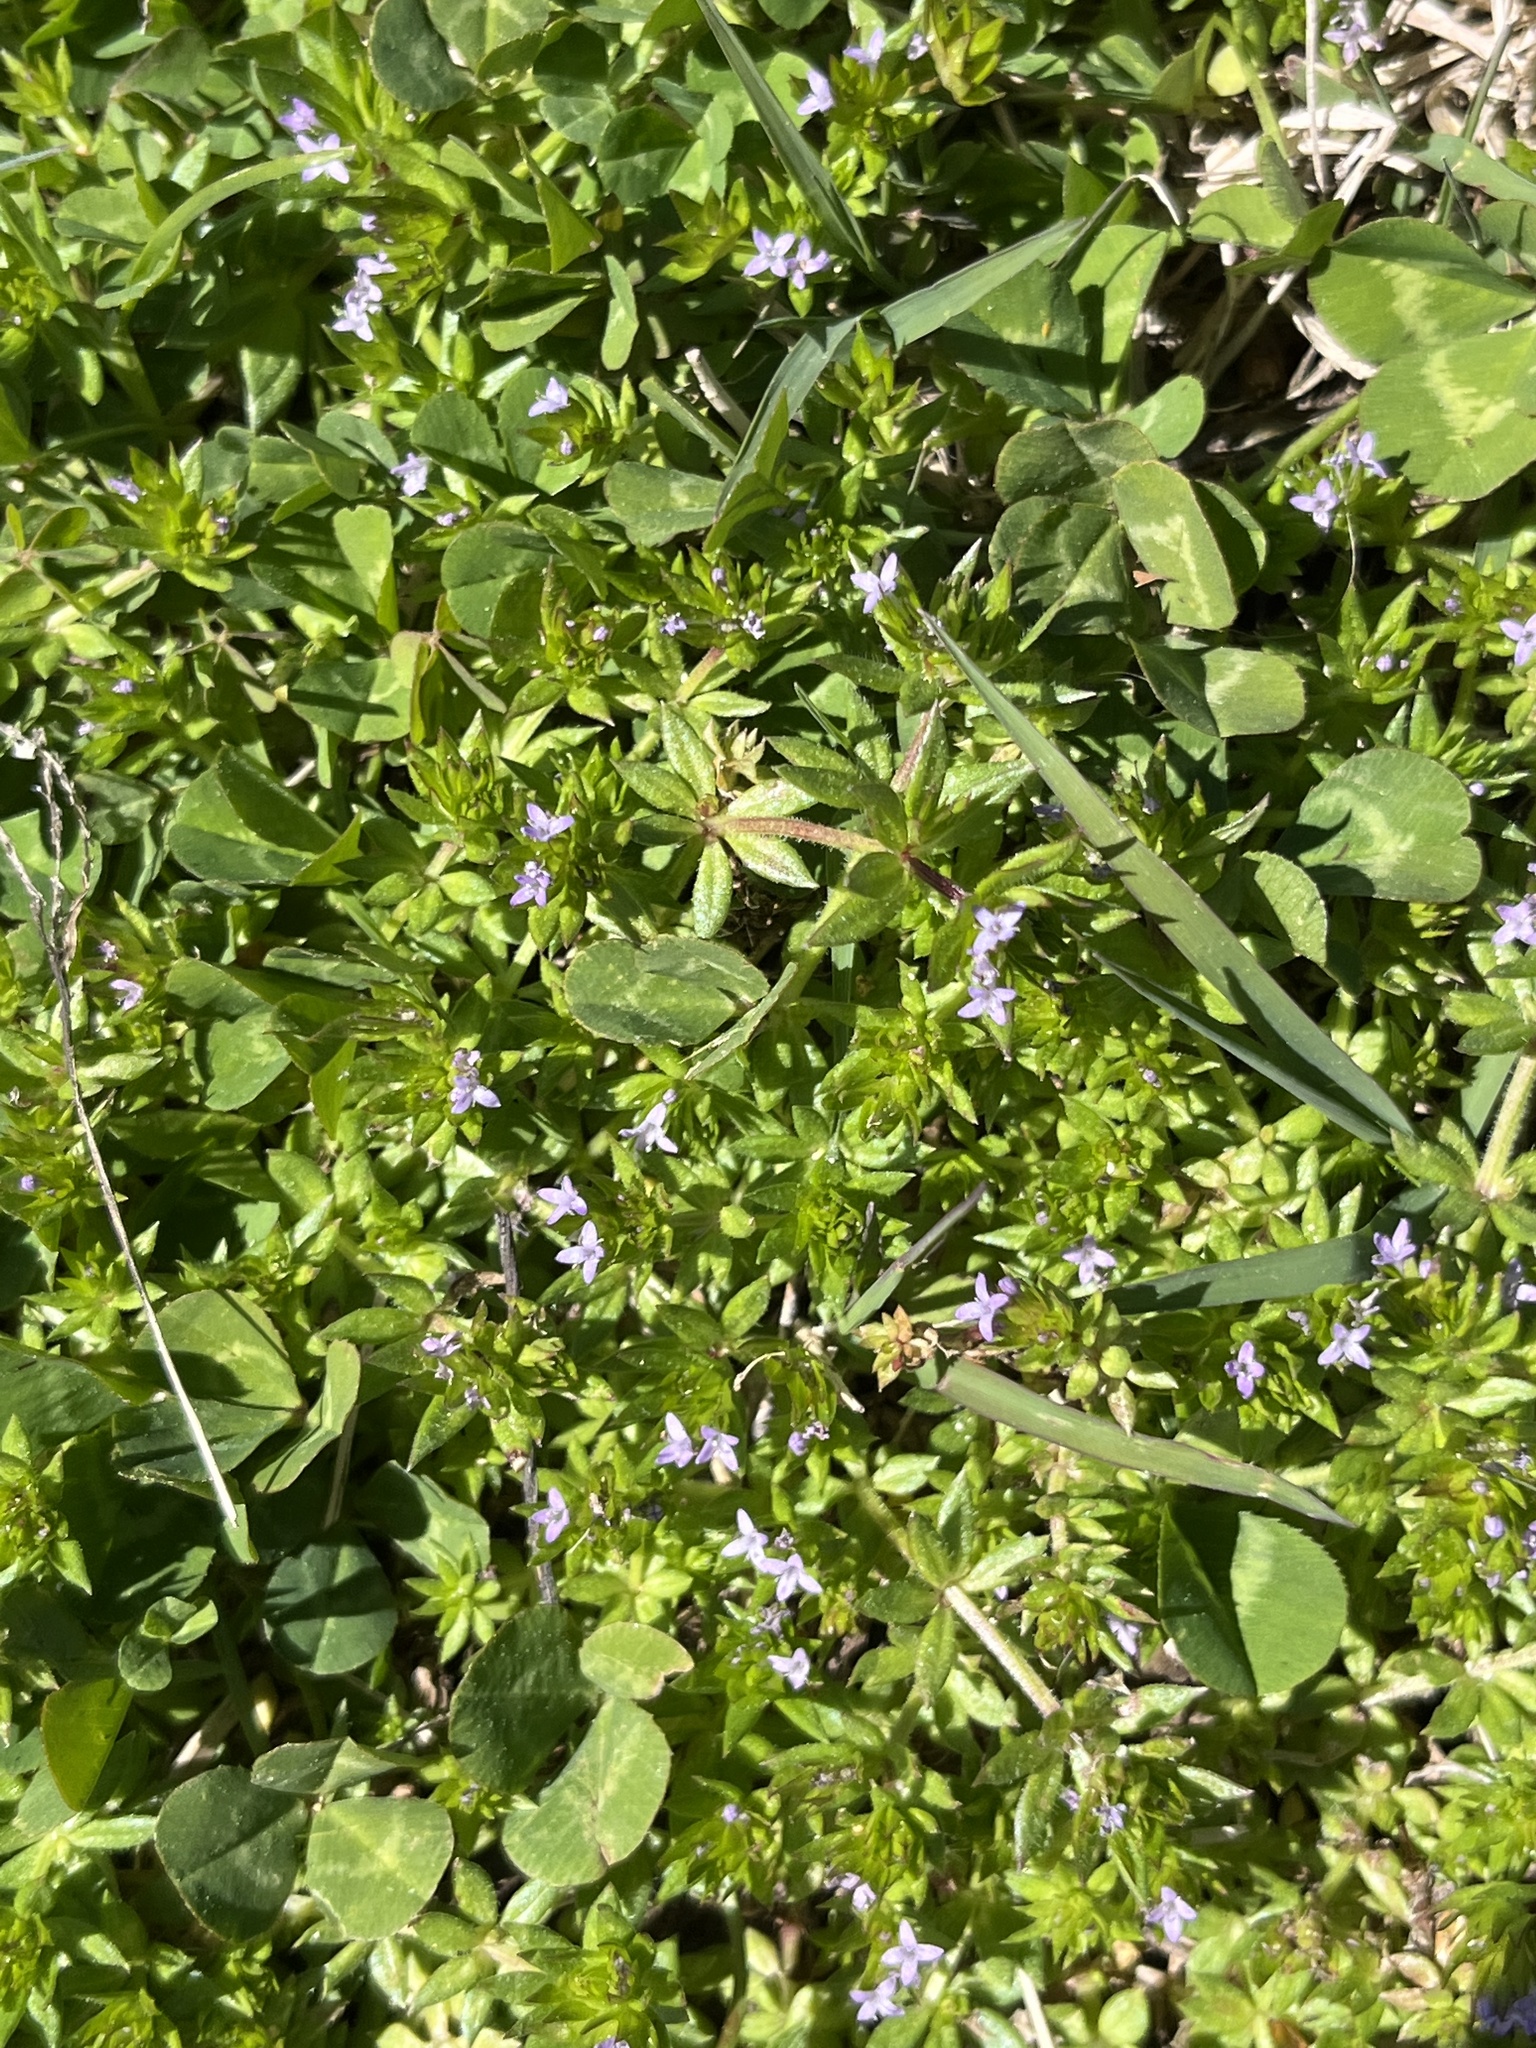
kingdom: Plantae
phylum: Tracheophyta
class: Magnoliopsida
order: Gentianales
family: Rubiaceae
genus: Sherardia
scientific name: Sherardia arvensis
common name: Field madder
